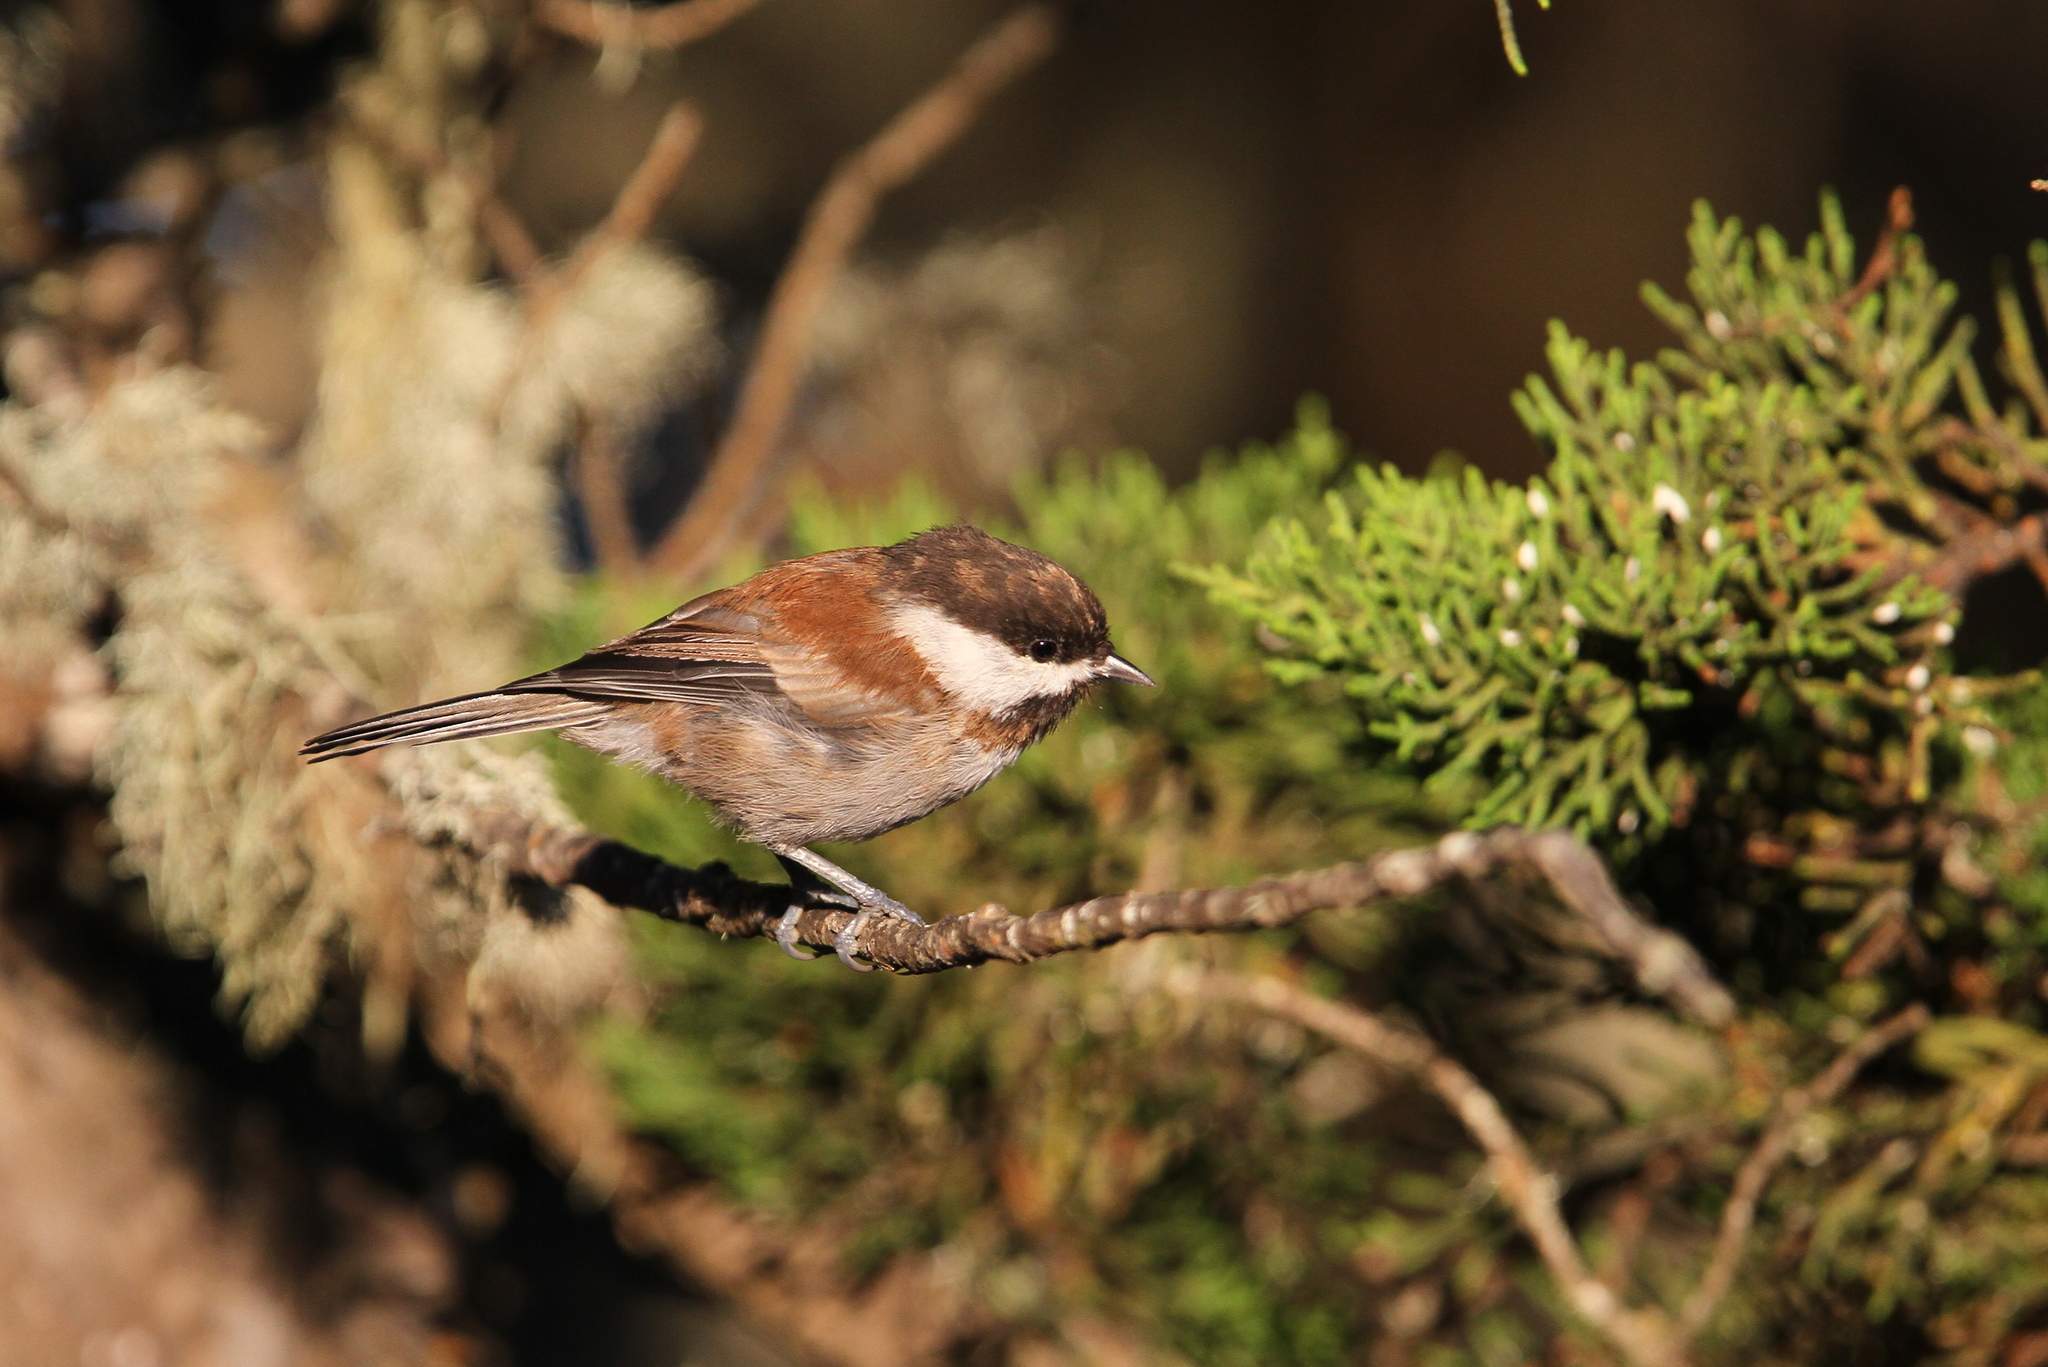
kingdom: Animalia
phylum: Chordata
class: Aves
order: Passeriformes
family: Paridae
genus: Poecile
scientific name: Poecile rufescens
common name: Chestnut-backed chickadee
